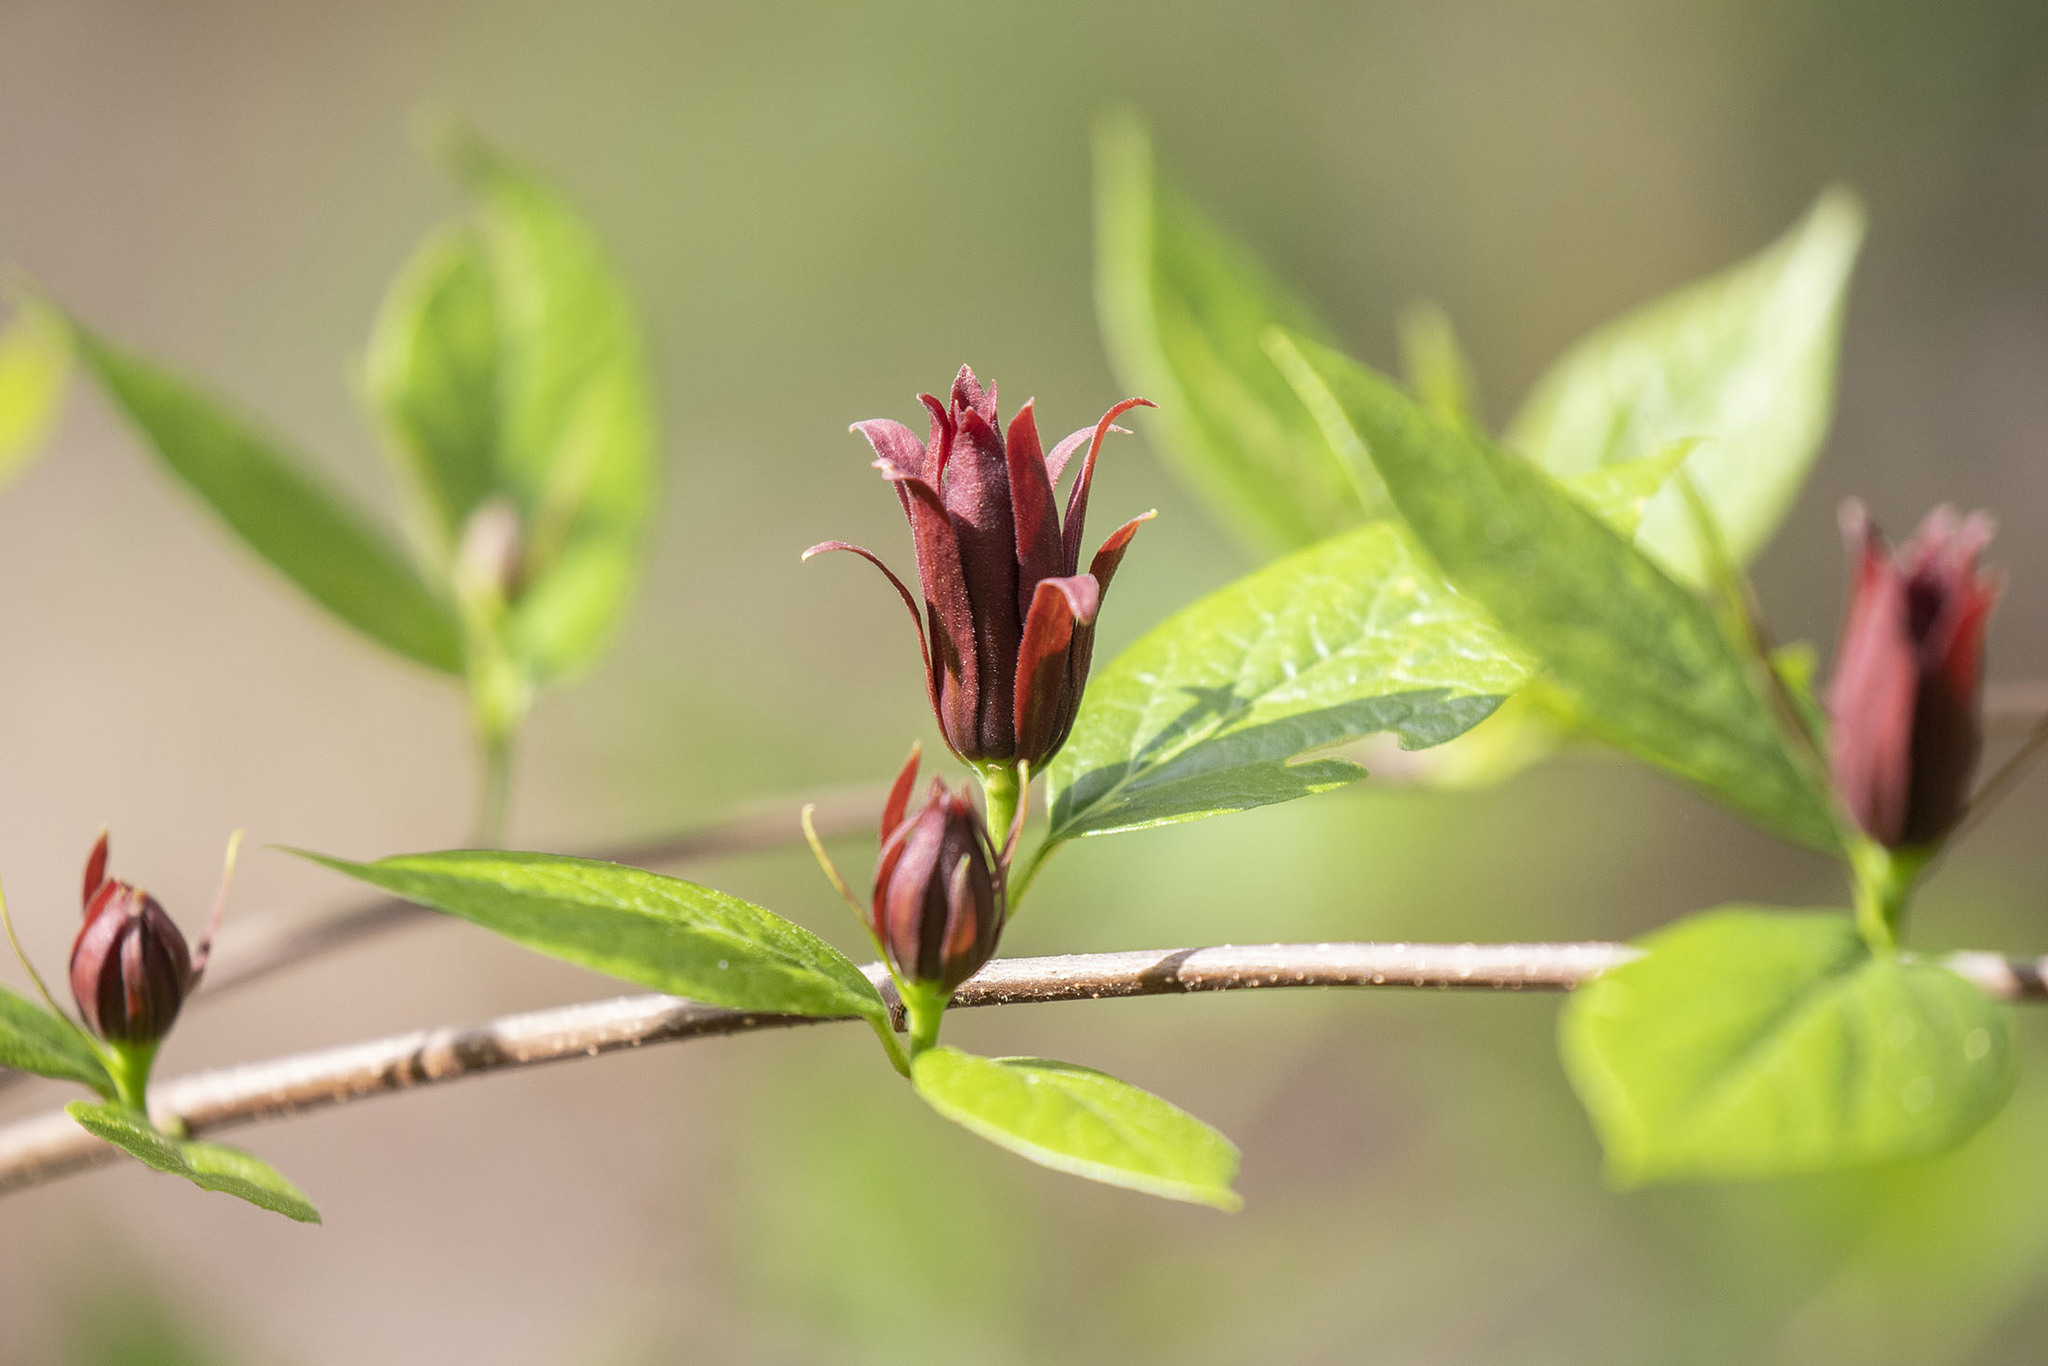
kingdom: Plantae
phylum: Tracheophyta
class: Magnoliopsida
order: Laurales
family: Calycanthaceae
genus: Calycanthus
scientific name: Calycanthus floridus
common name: Carolina-allspice
